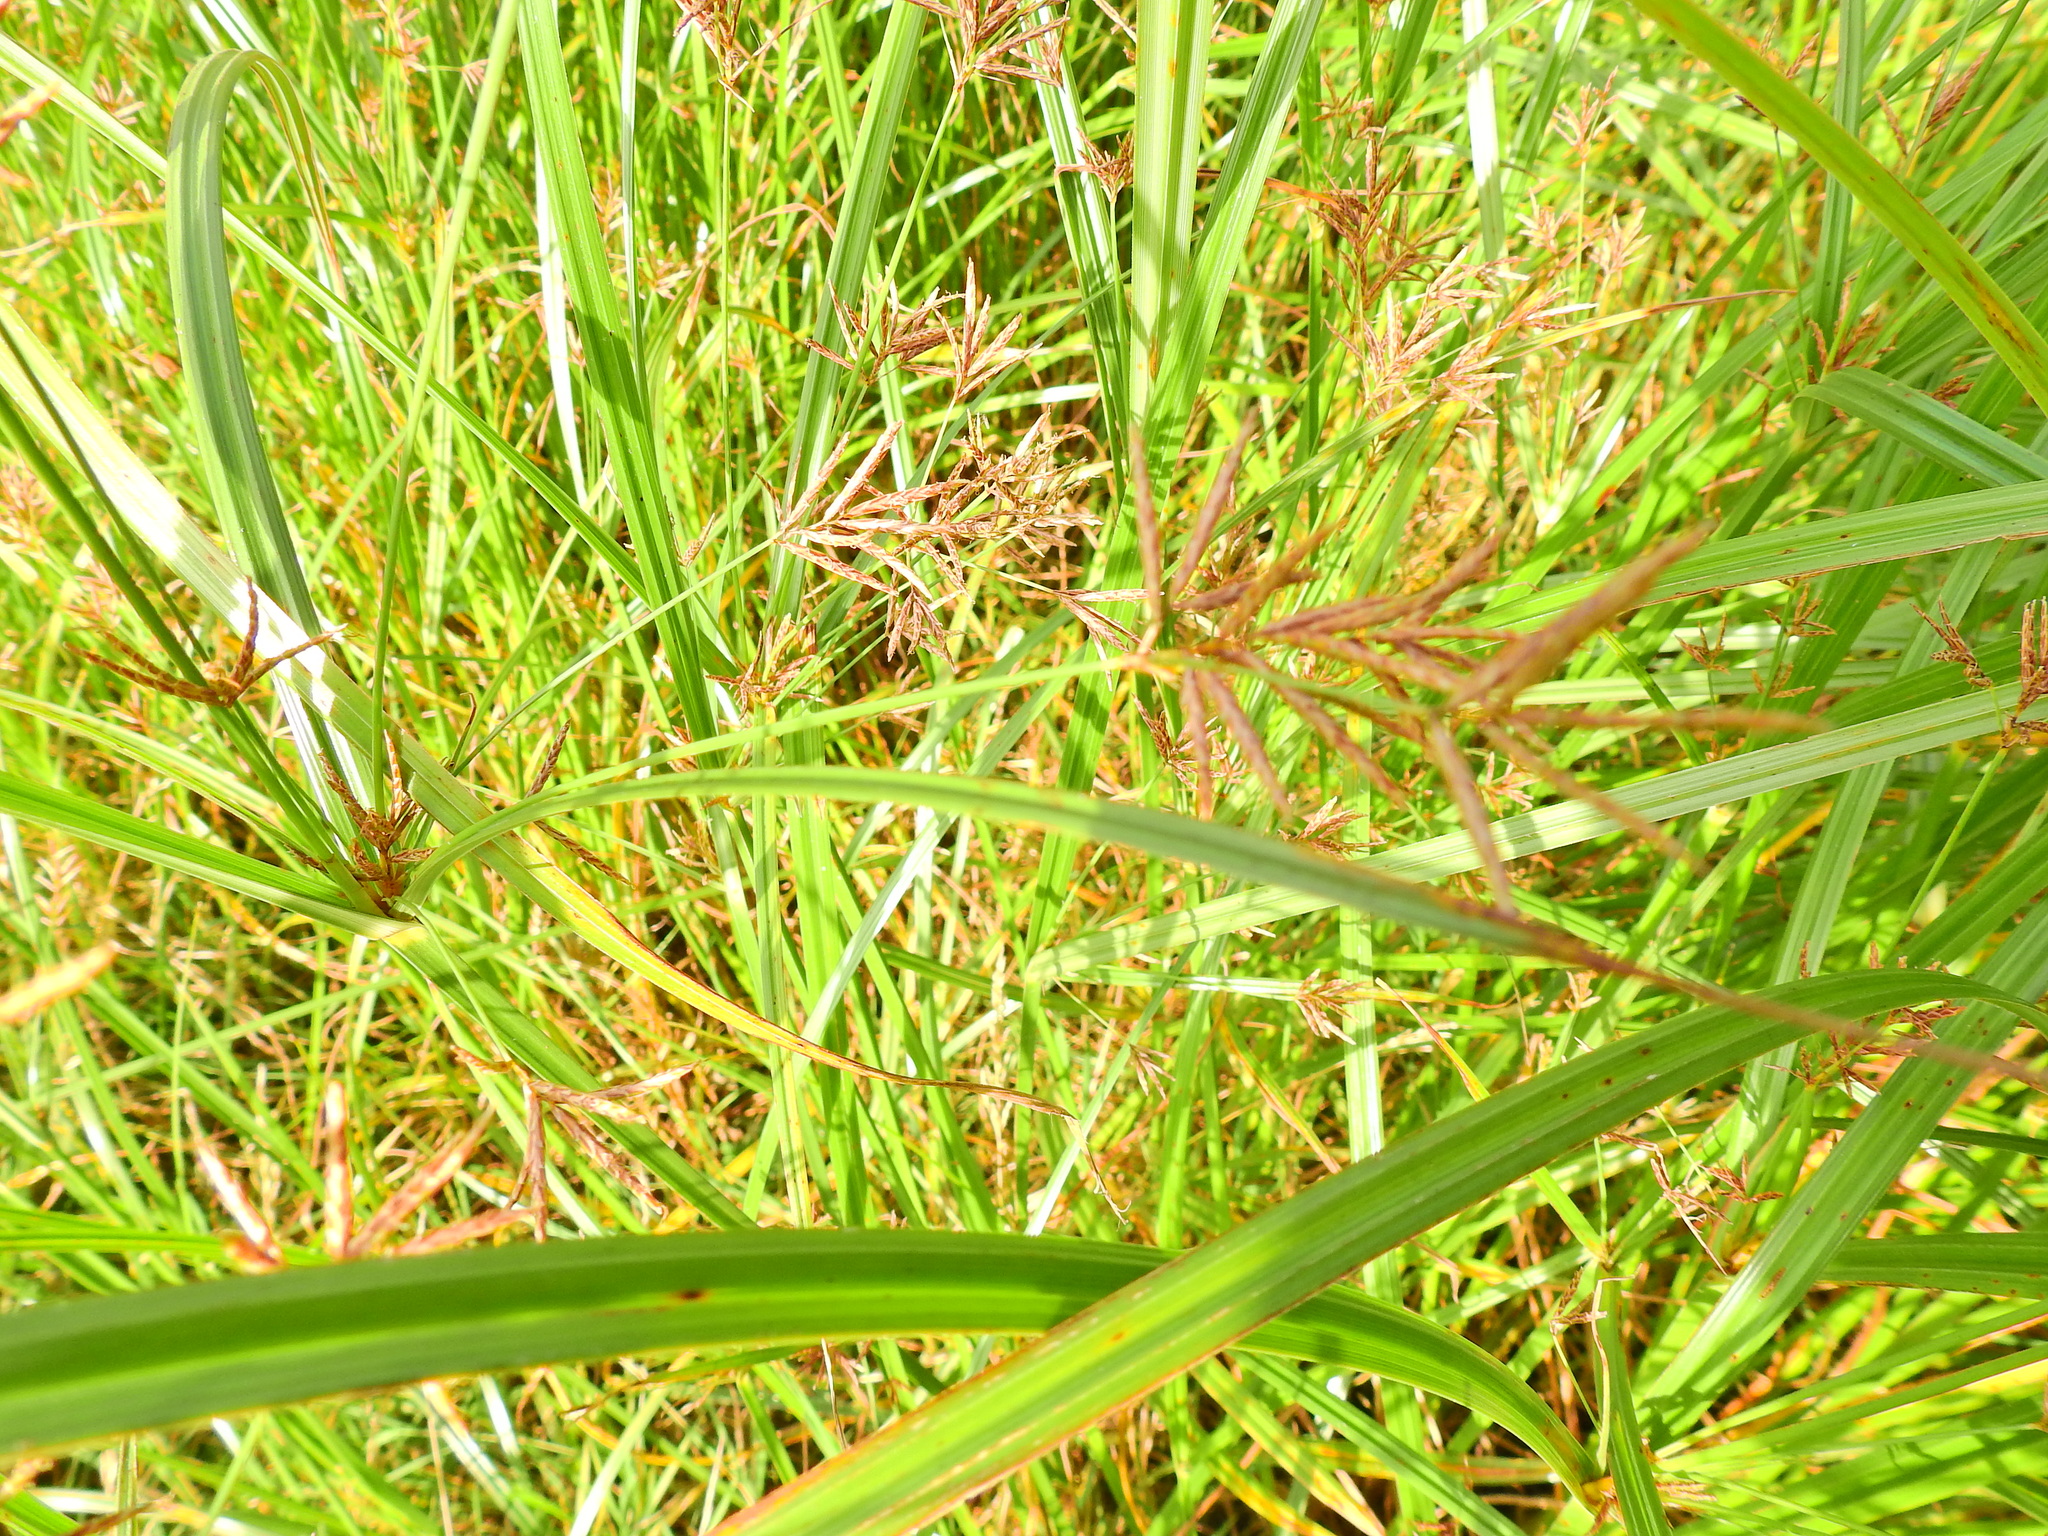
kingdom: Plantae
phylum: Tracheophyta
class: Liliopsida
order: Poales
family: Cyperaceae
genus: Cyperus
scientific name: Cyperus longus
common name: Galingale
